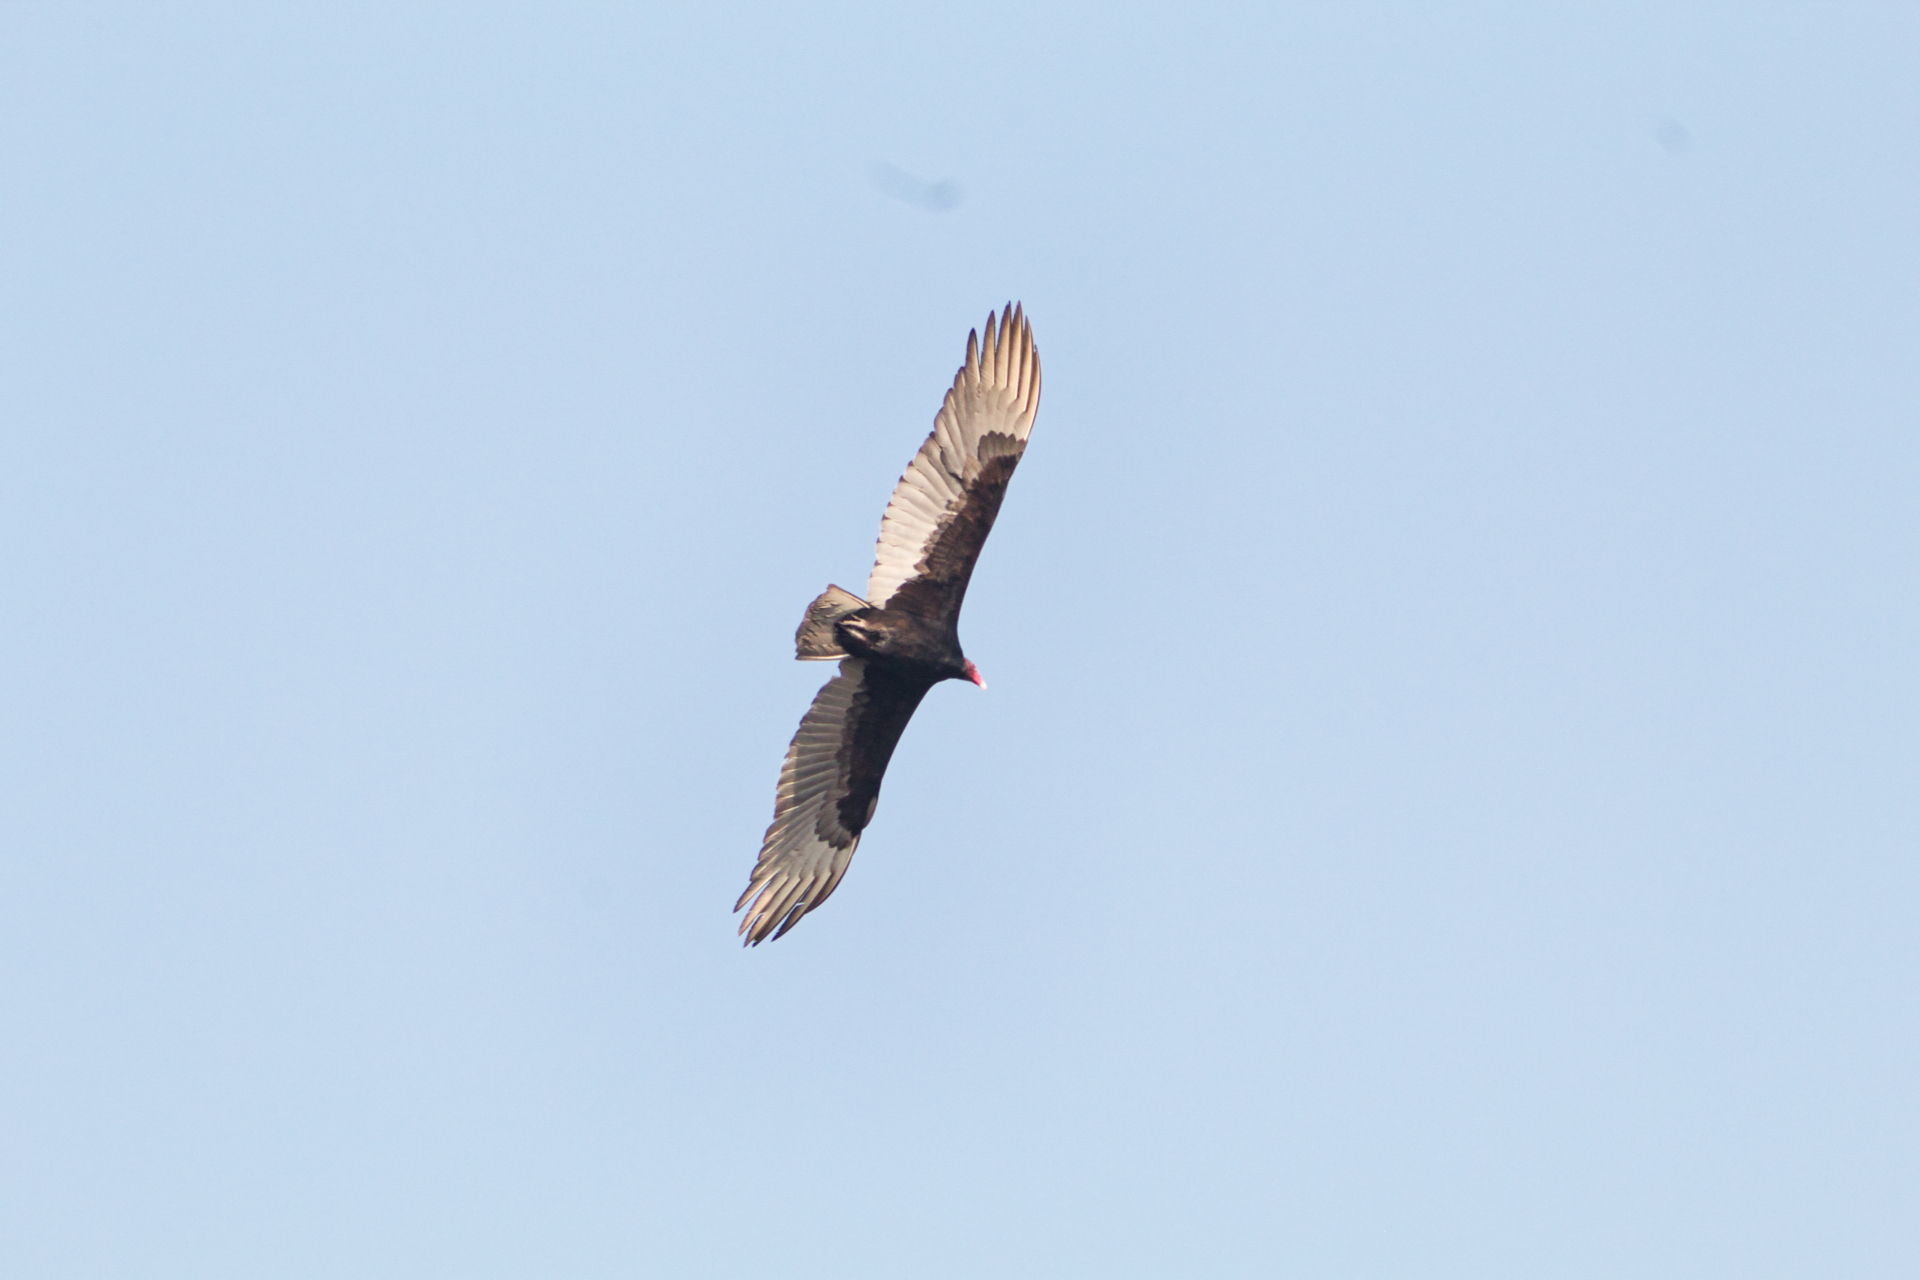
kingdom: Animalia
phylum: Chordata
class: Aves
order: Accipitriformes
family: Cathartidae
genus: Cathartes
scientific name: Cathartes aura
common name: Turkey vulture
